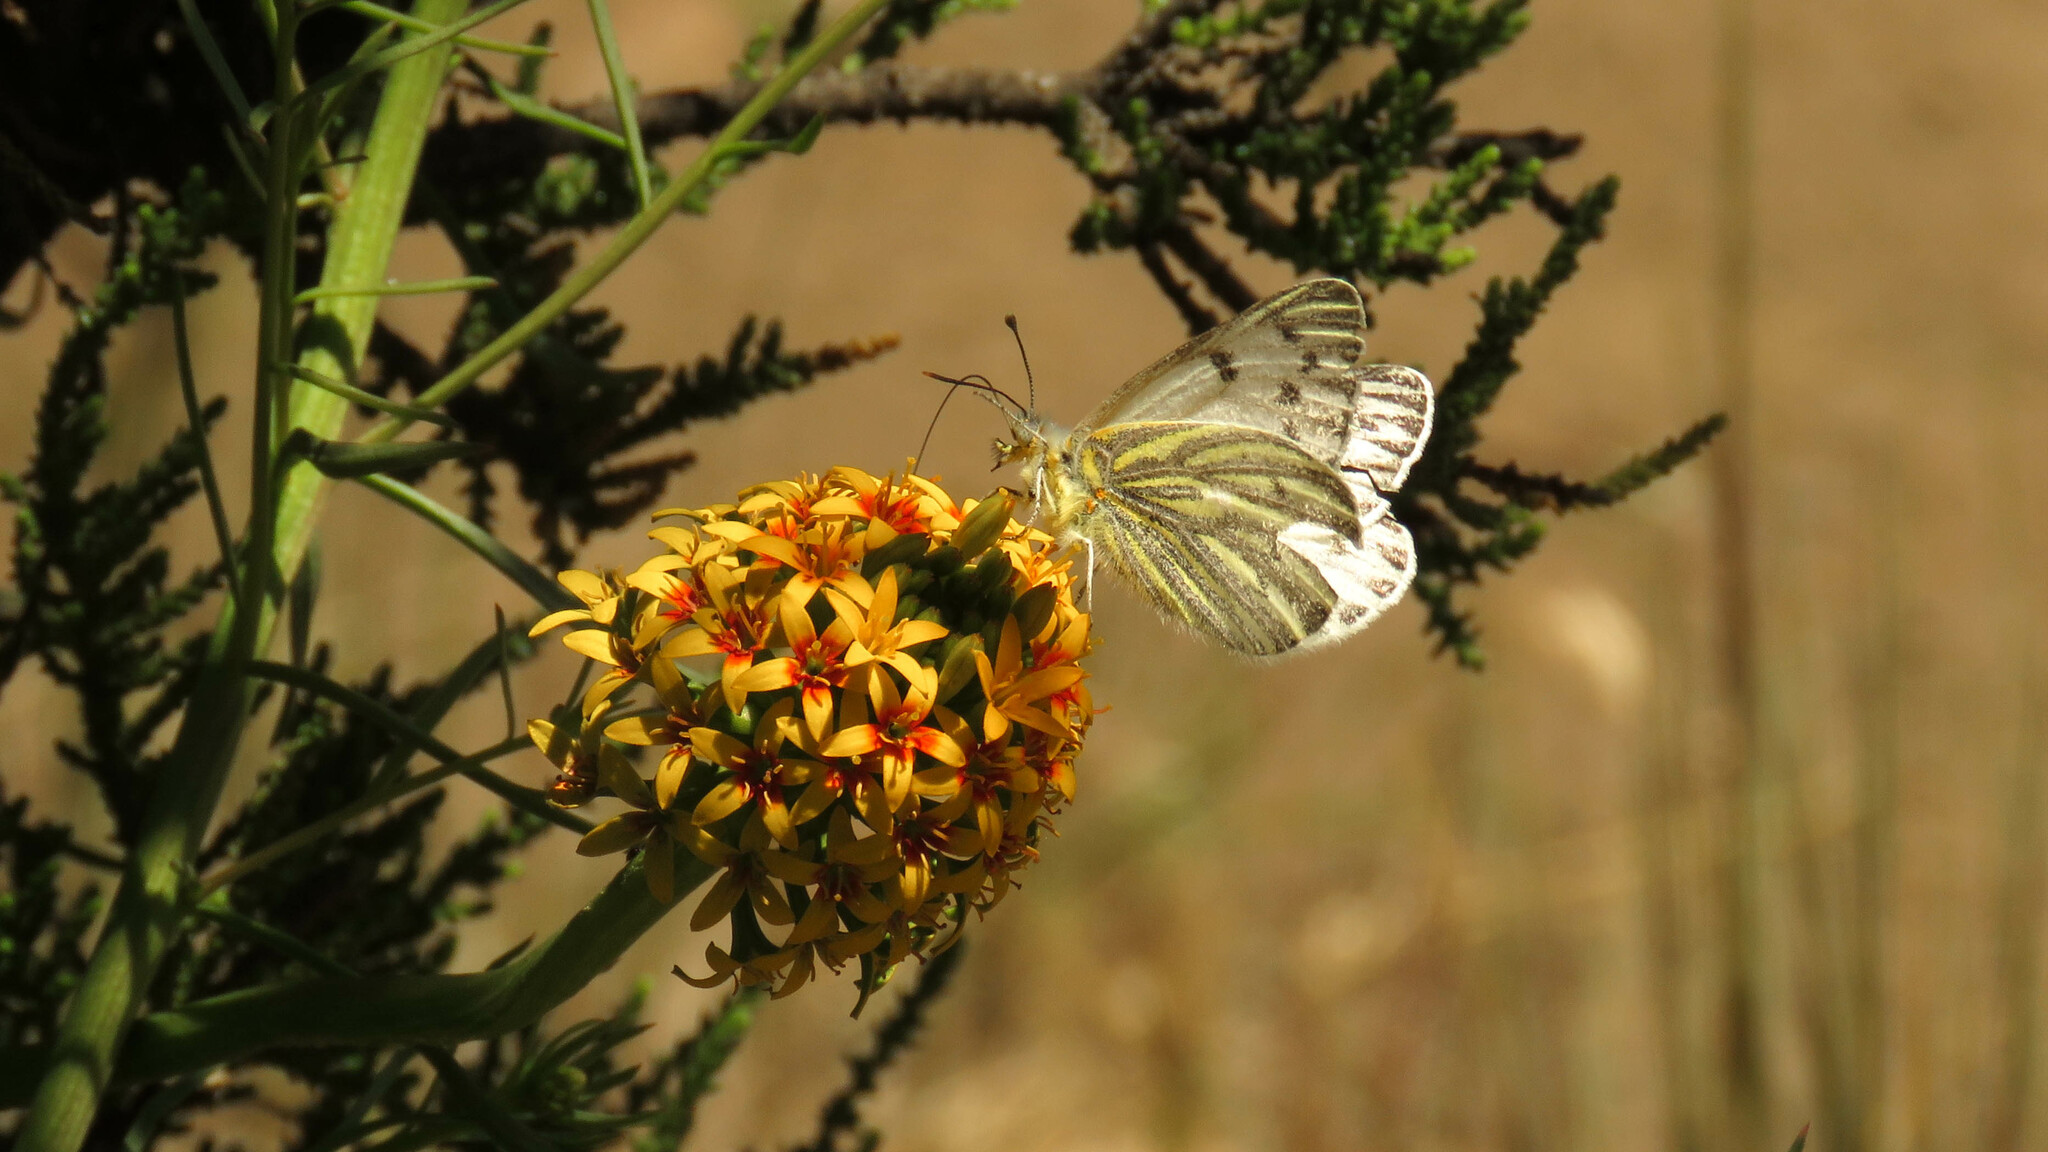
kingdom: Animalia
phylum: Arthropoda
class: Insecta
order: Lepidoptera
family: Pieridae
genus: Tatochila
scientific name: Tatochila mercedis
